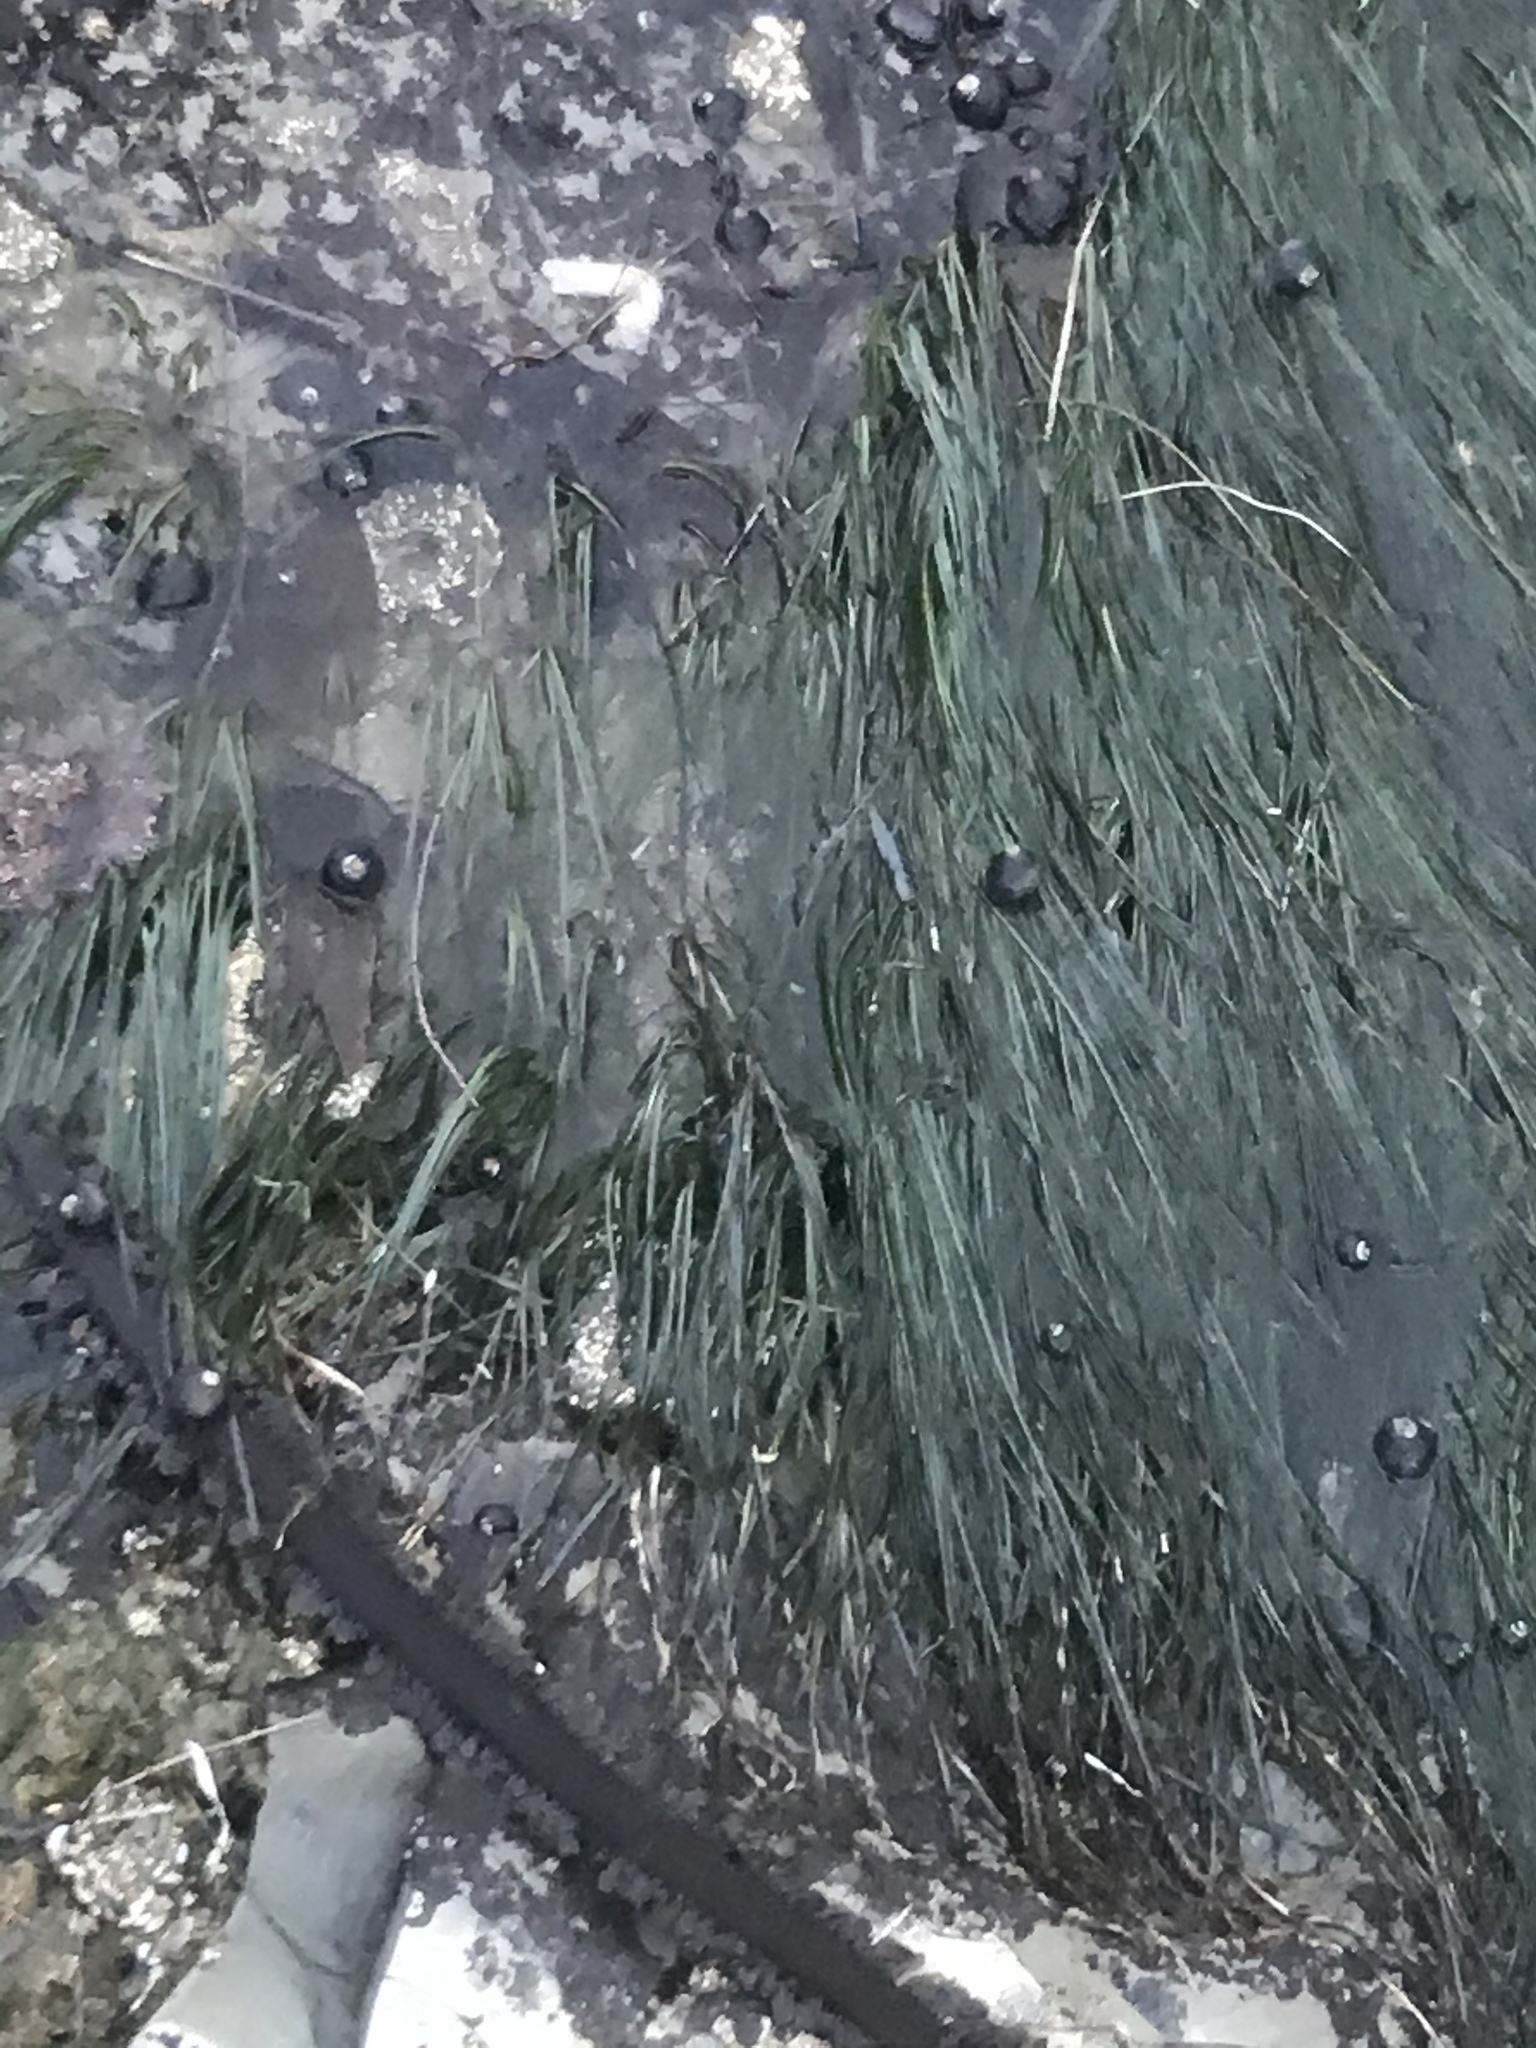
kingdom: Animalia
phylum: Mollusca
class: Gastropoda
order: Trochida
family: Tegulidae
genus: Tegula
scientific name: Tegula funebralis
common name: Black tegula
